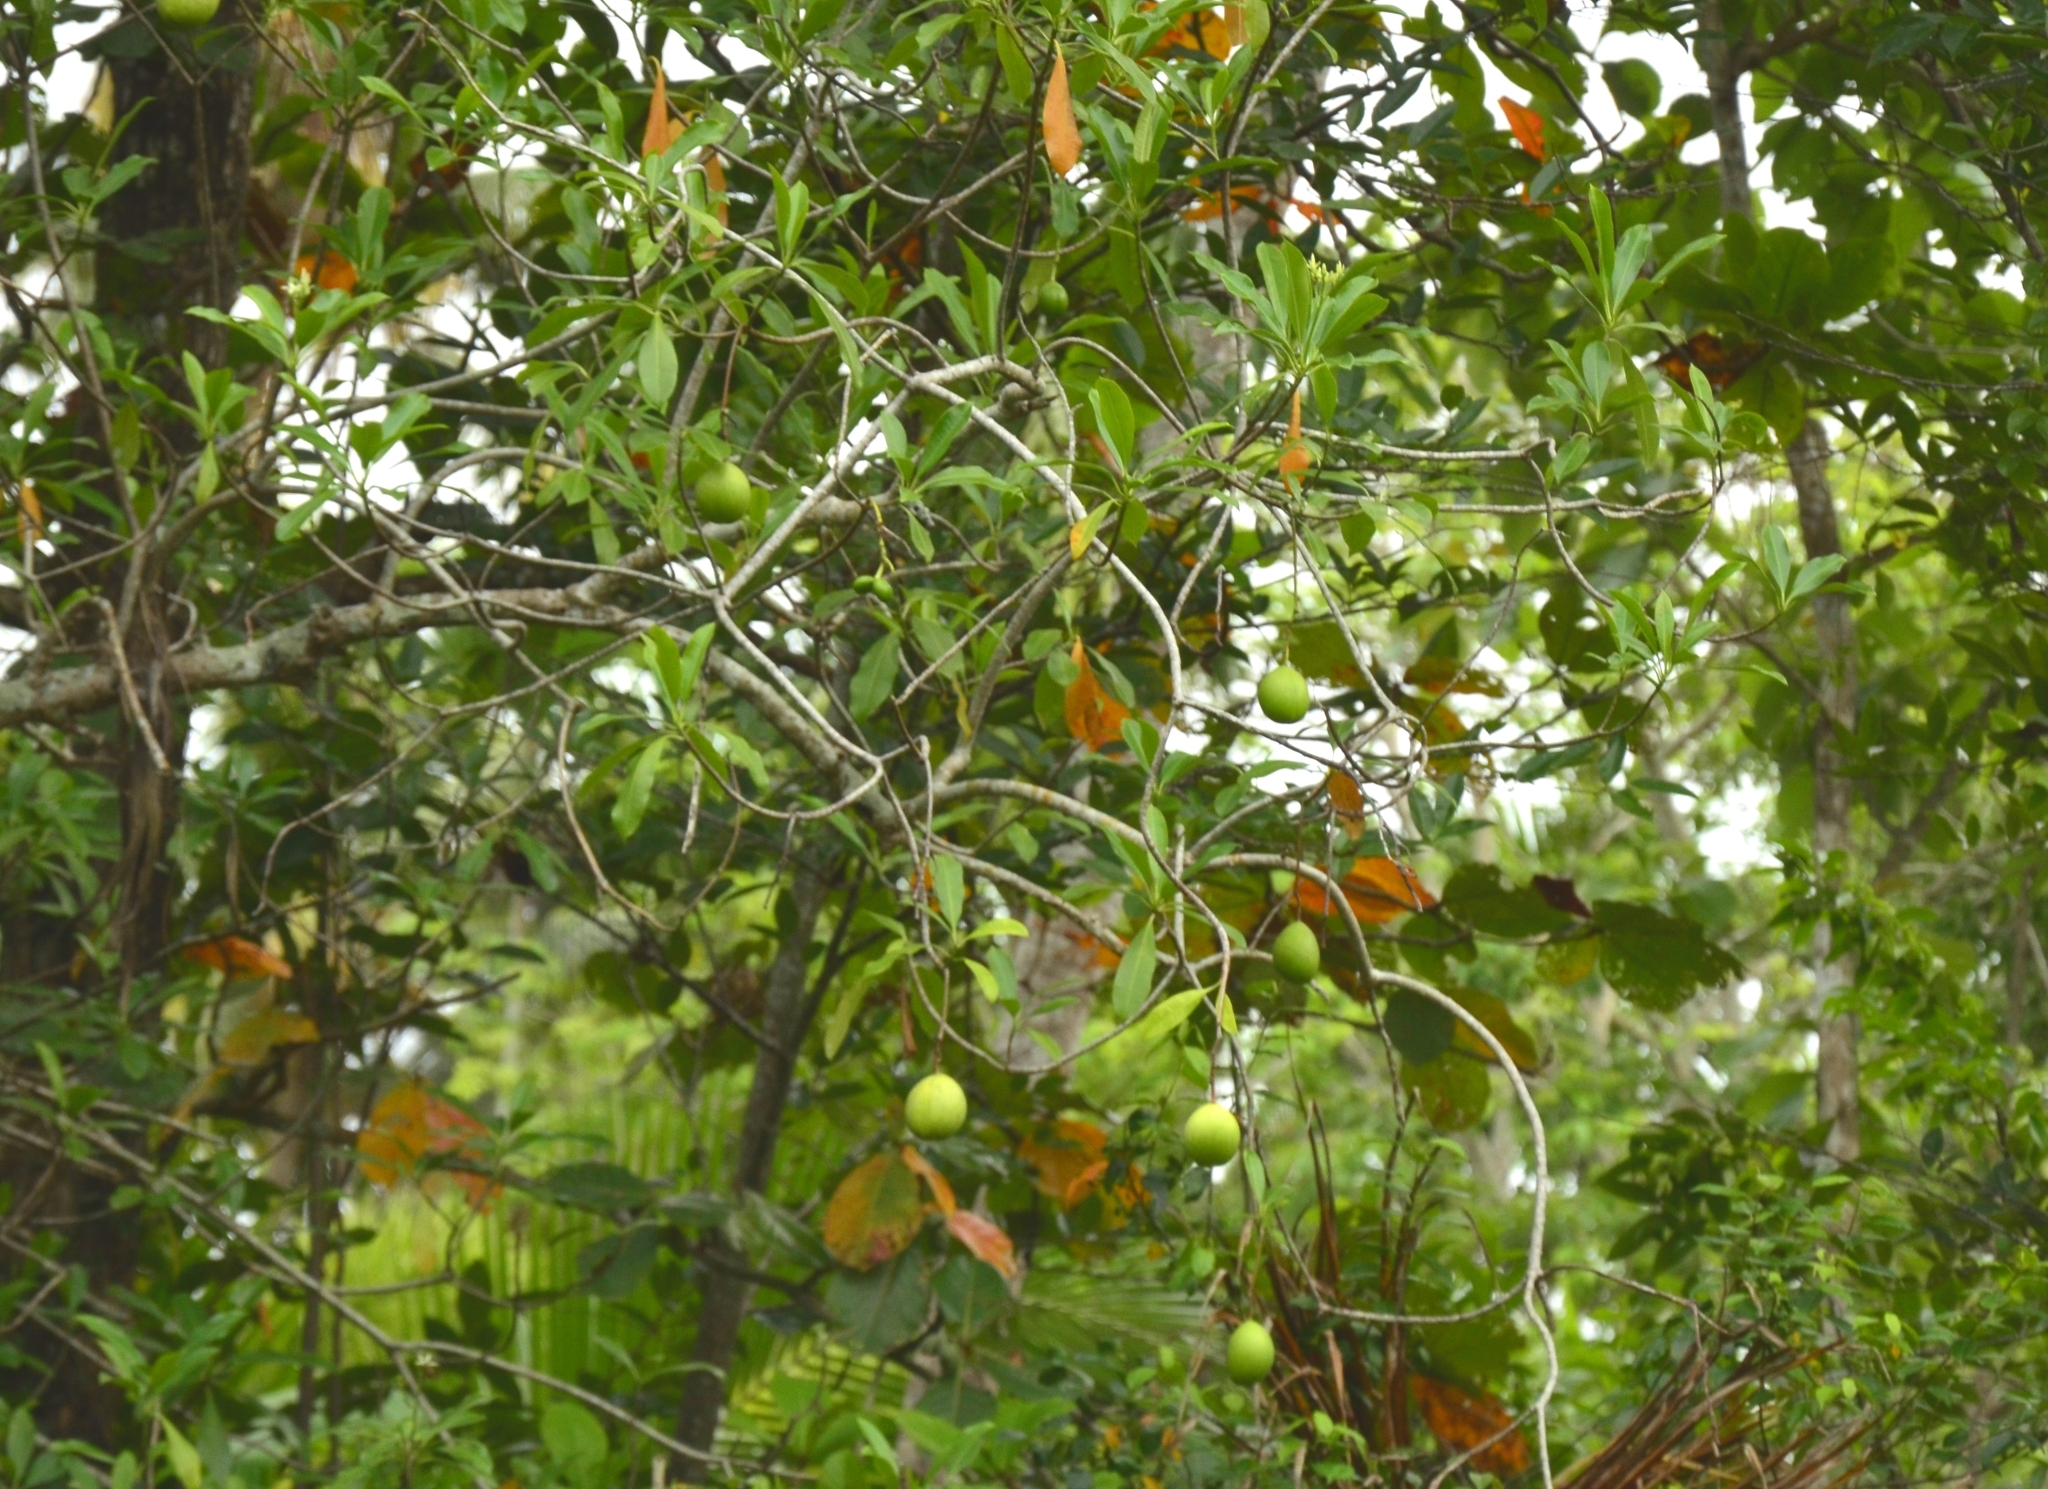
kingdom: Plantae
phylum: Tracheophyta
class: Magnoliopsida
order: Gentianales
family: Apocynaceae
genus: Cerbera
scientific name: Cerbera odollam
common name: Pong-pong
